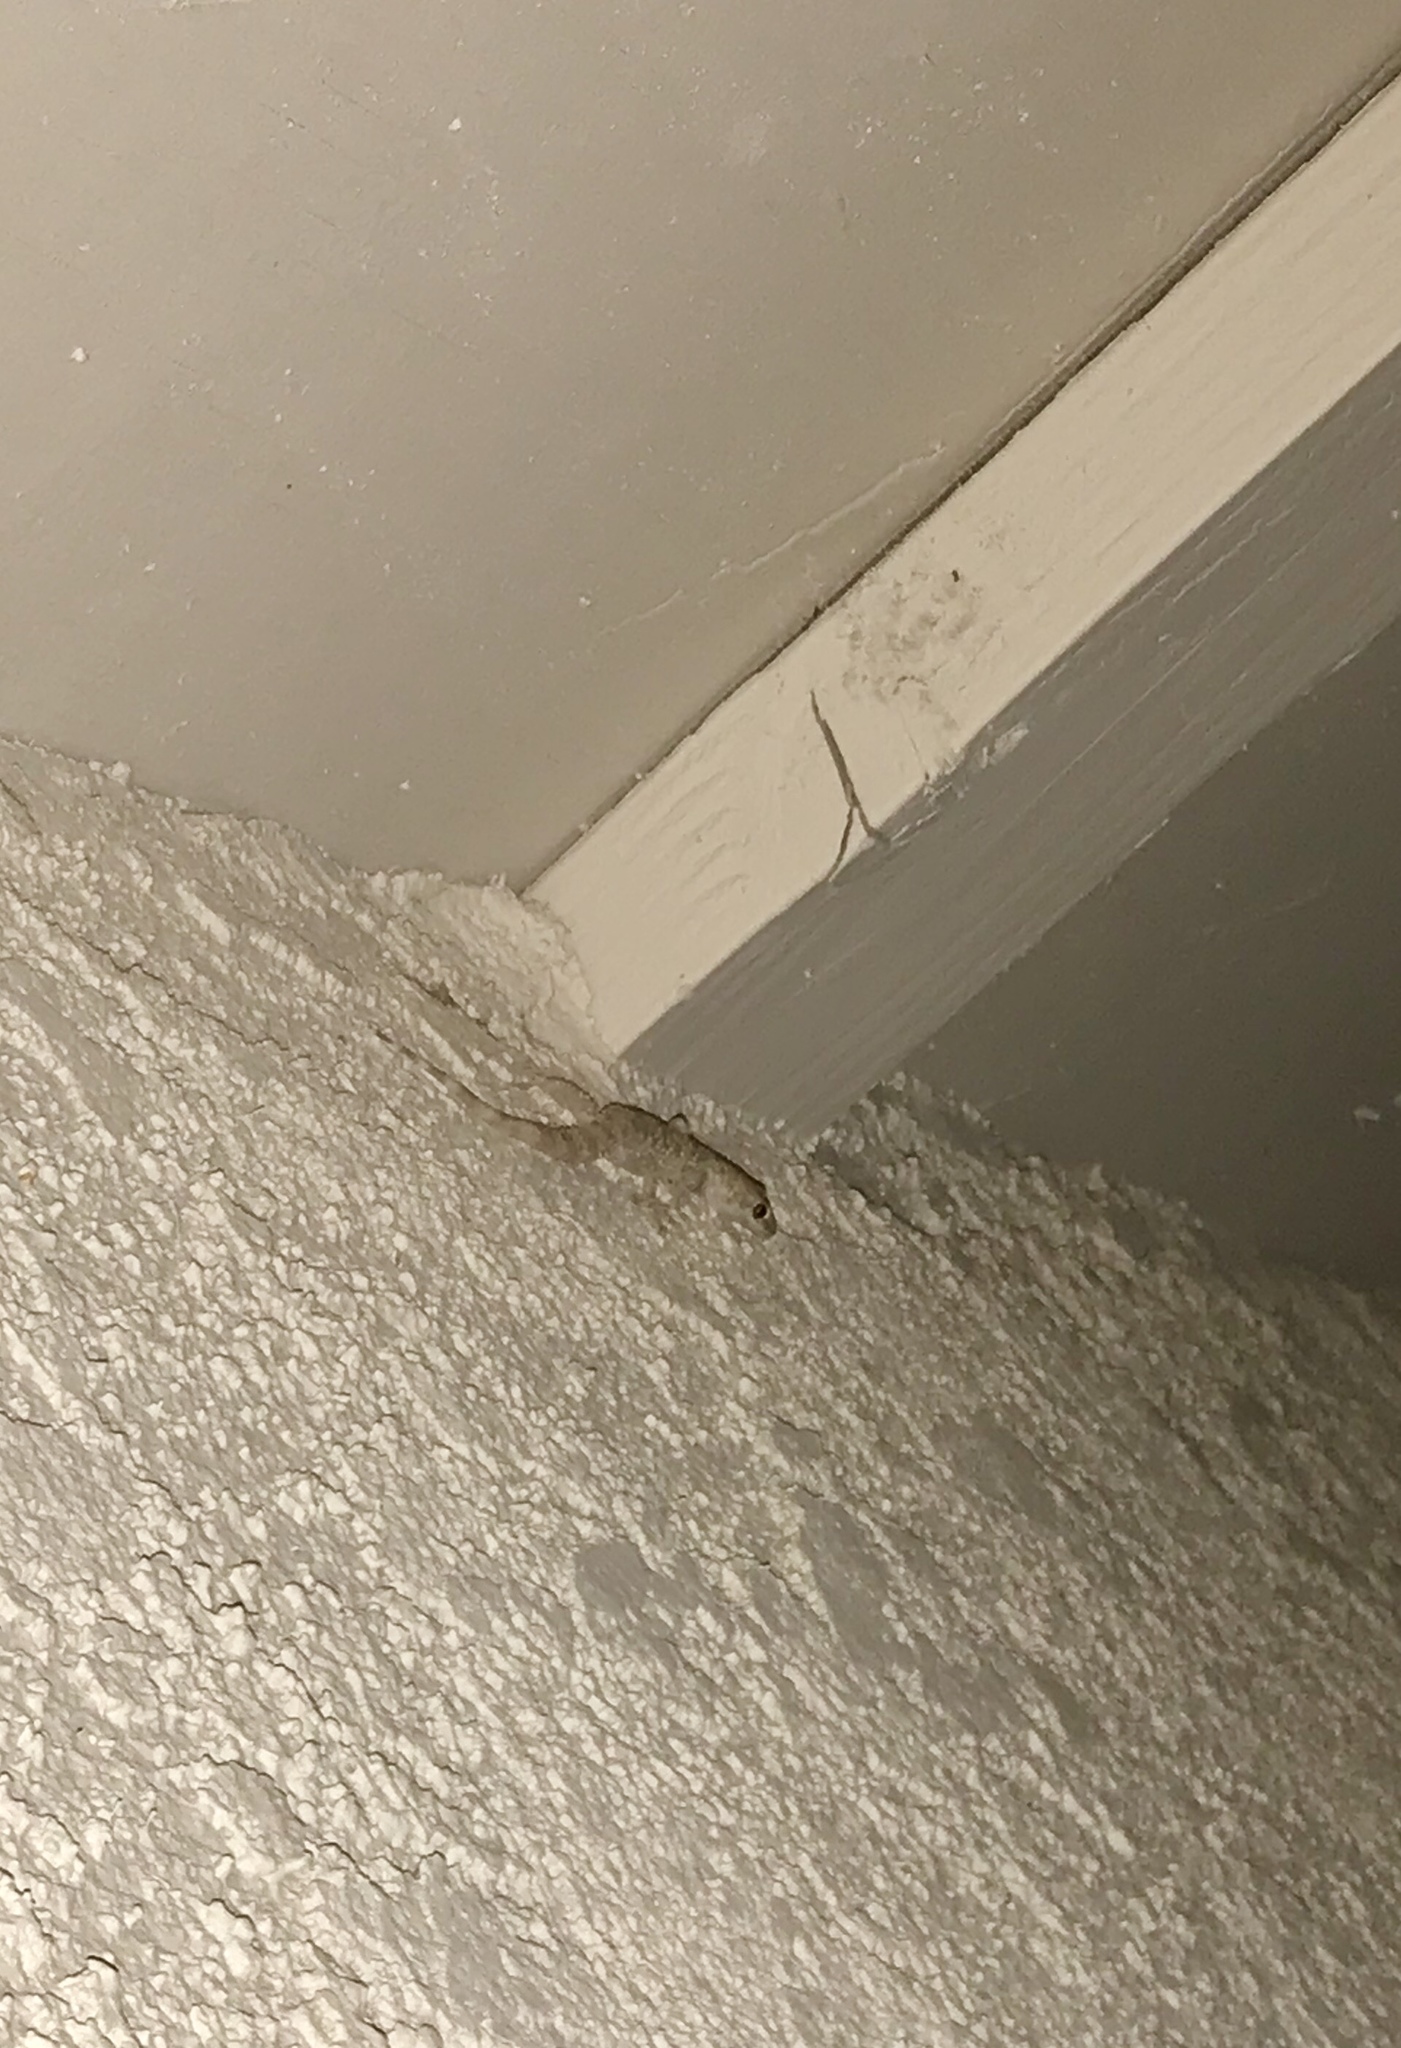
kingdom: Animalia
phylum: Chordata
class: Squamata
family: Gekkonidae
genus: Hemidactylus
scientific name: Hemidactylus turcicus
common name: Turkish gecko
